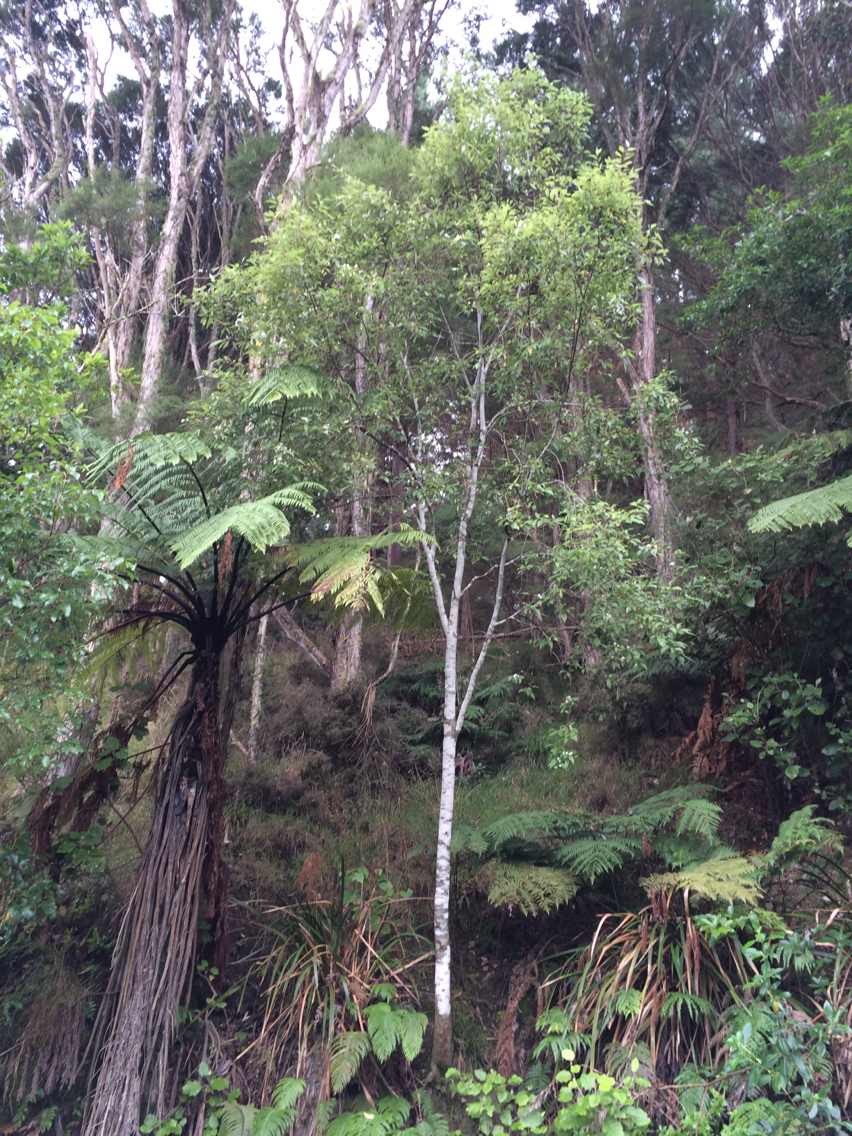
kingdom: Plantae
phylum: Tracheophyta
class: Magnoliopsida
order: Malvales
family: Malvaceae
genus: Hoheria
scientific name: Hoheria sexstylosa
